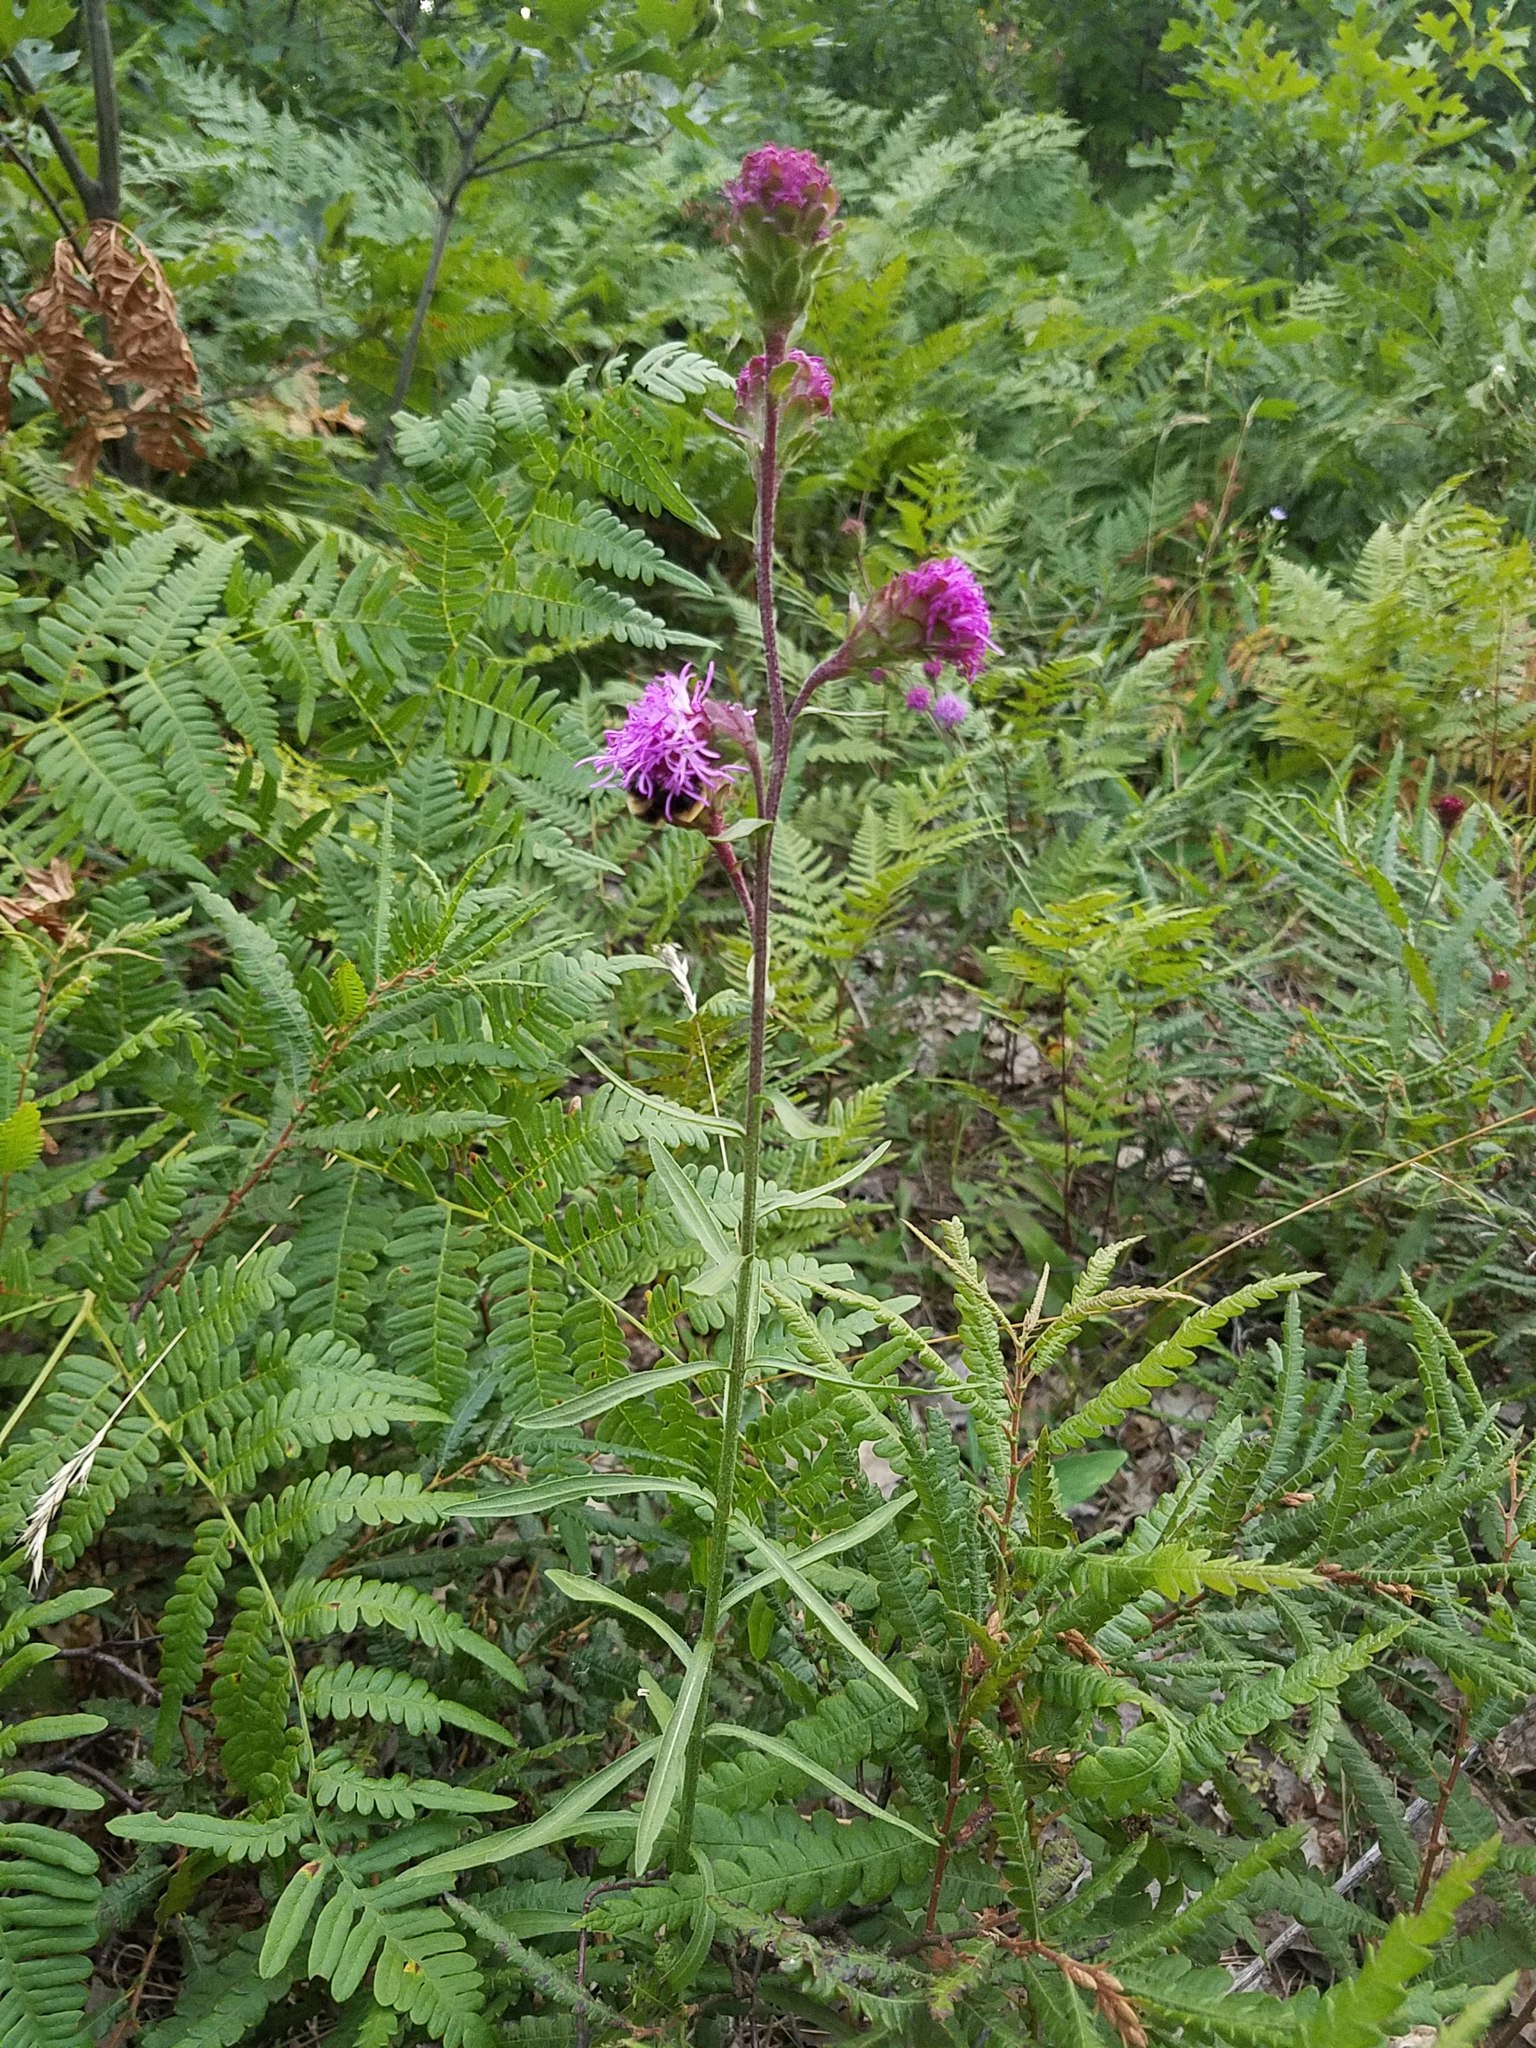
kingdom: Plantae
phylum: Tracheophyta
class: Magnoliopsida
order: Asterales
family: Asteraceae
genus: Liatris
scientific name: Liatris ligulistylis
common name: Northern plains gayfeather
